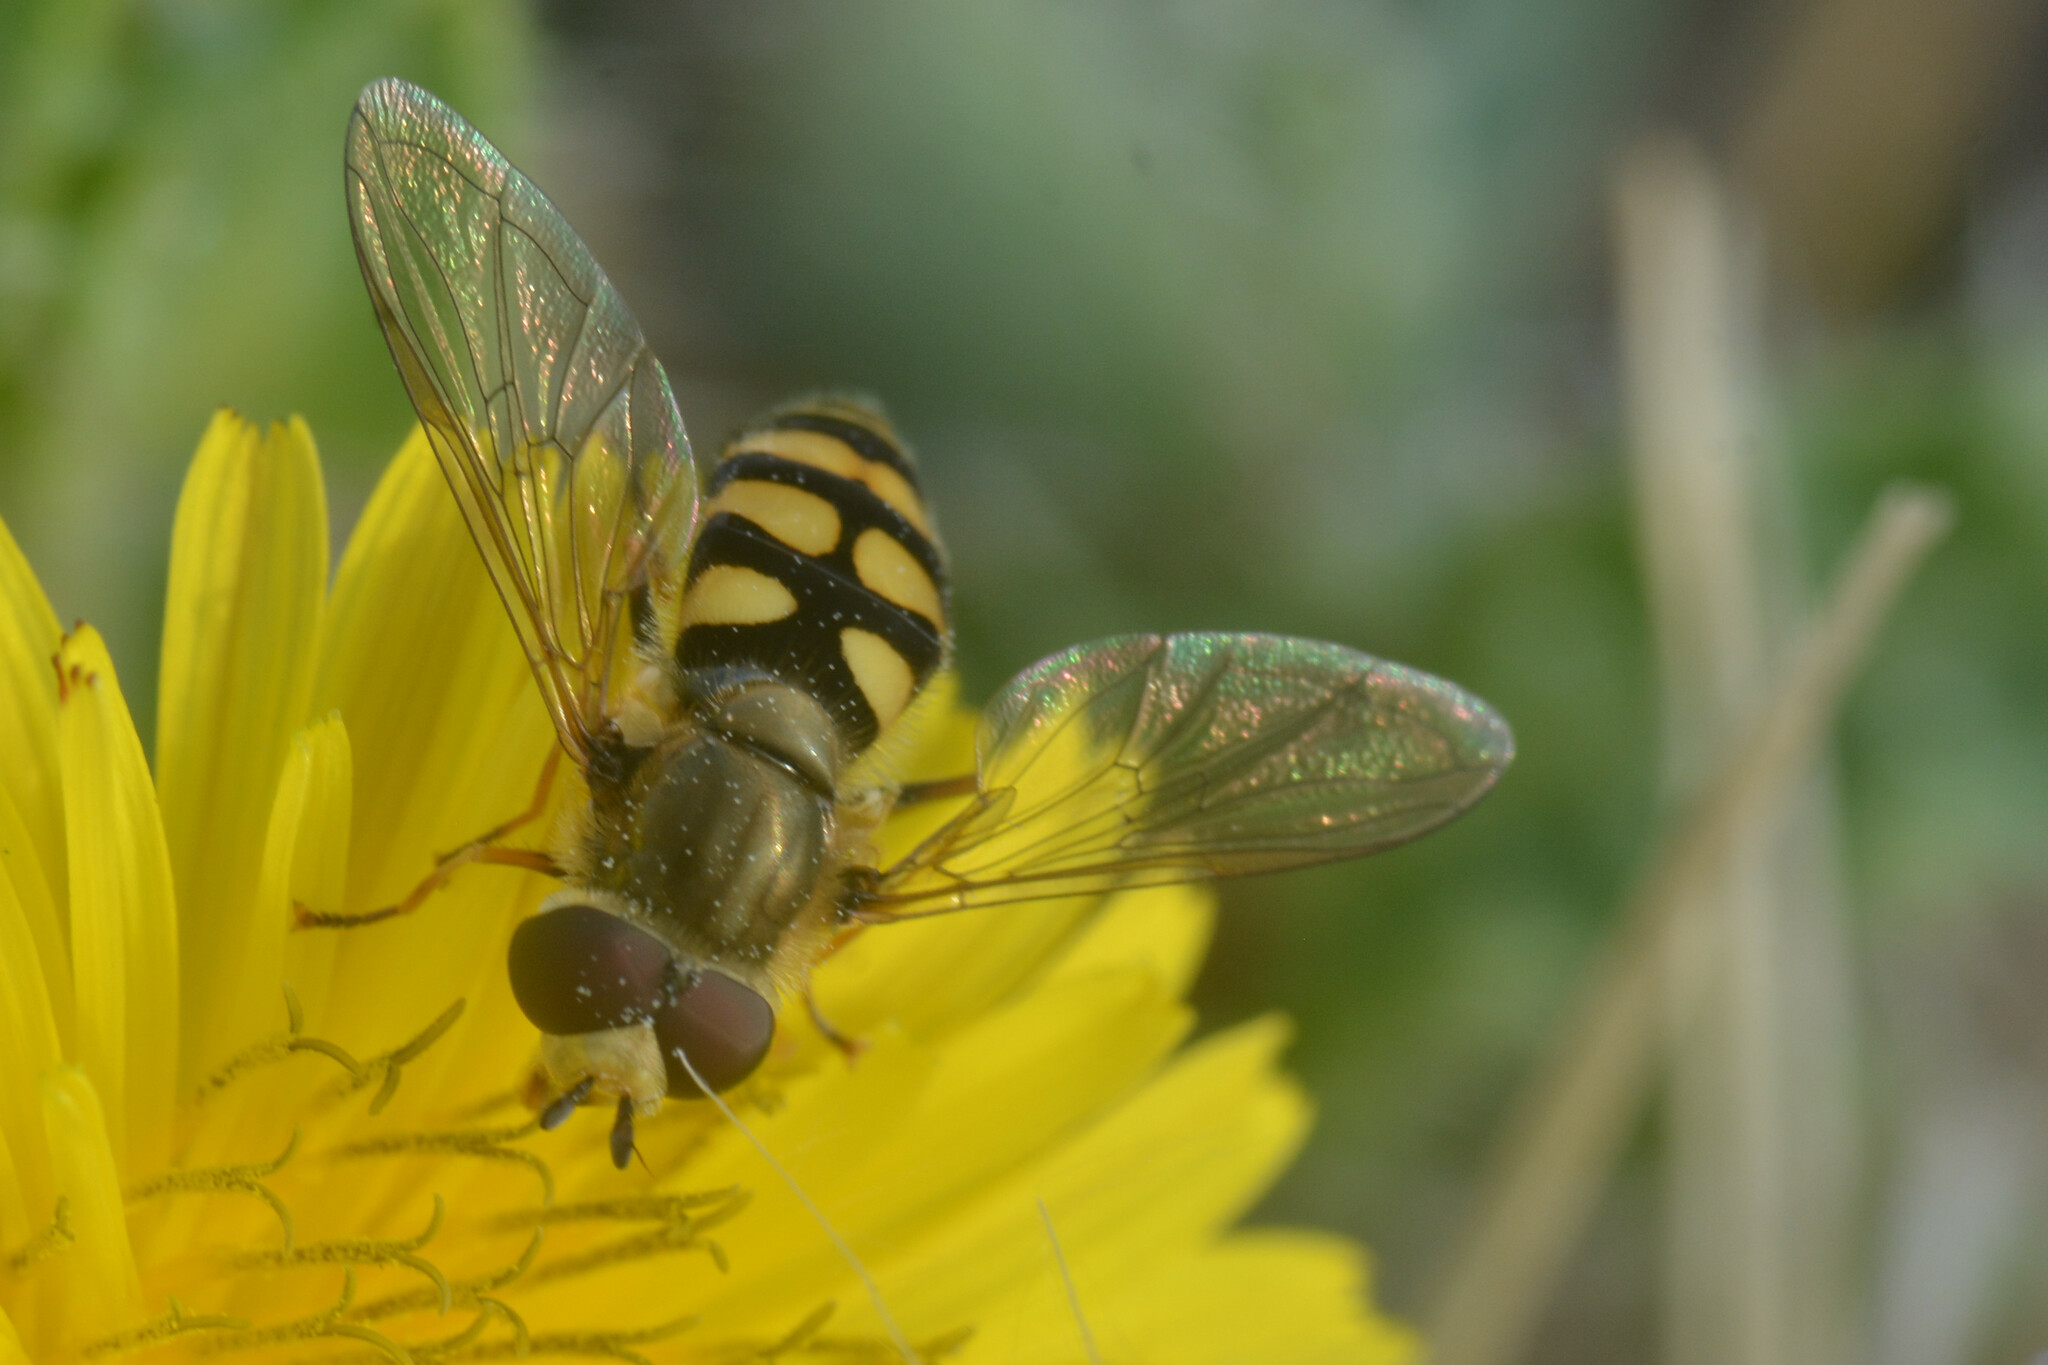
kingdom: Animalia
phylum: Arthropoda
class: Insecta
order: Diptera
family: Syrphidae
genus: Eupeodes
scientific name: Eupeodes corollae
